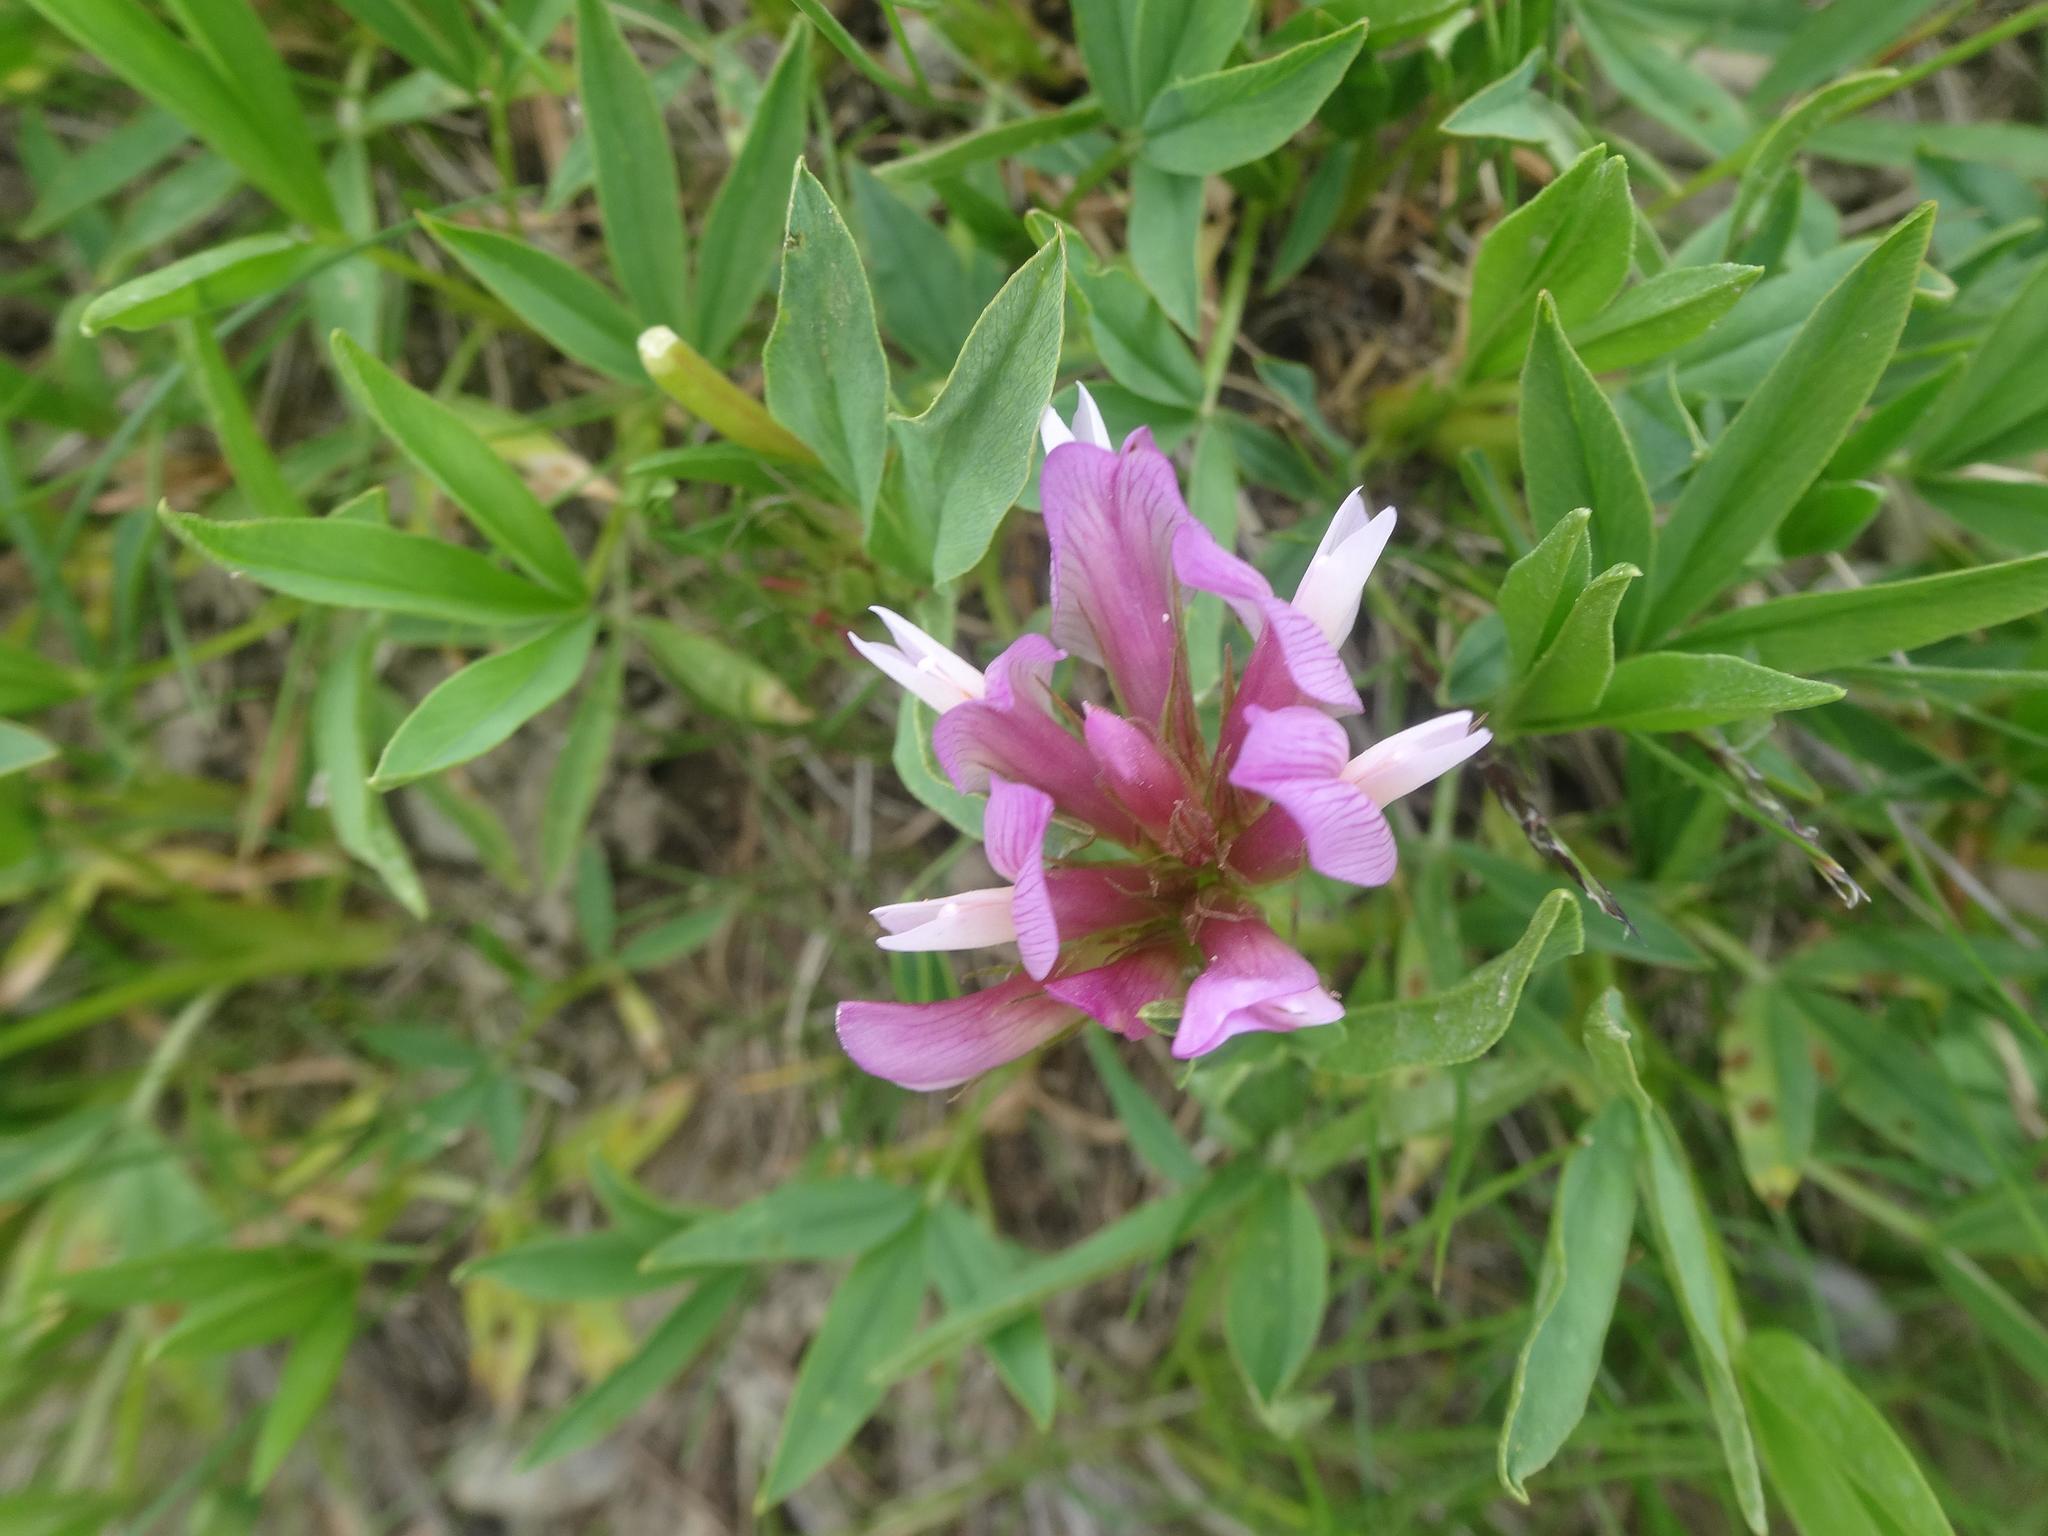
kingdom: Plantae
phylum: Tracheophyta
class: Magnoliopsida
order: Fabales
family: Fabaceae
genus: Trifolium
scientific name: Trifolium alpinum
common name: Alpine clover
